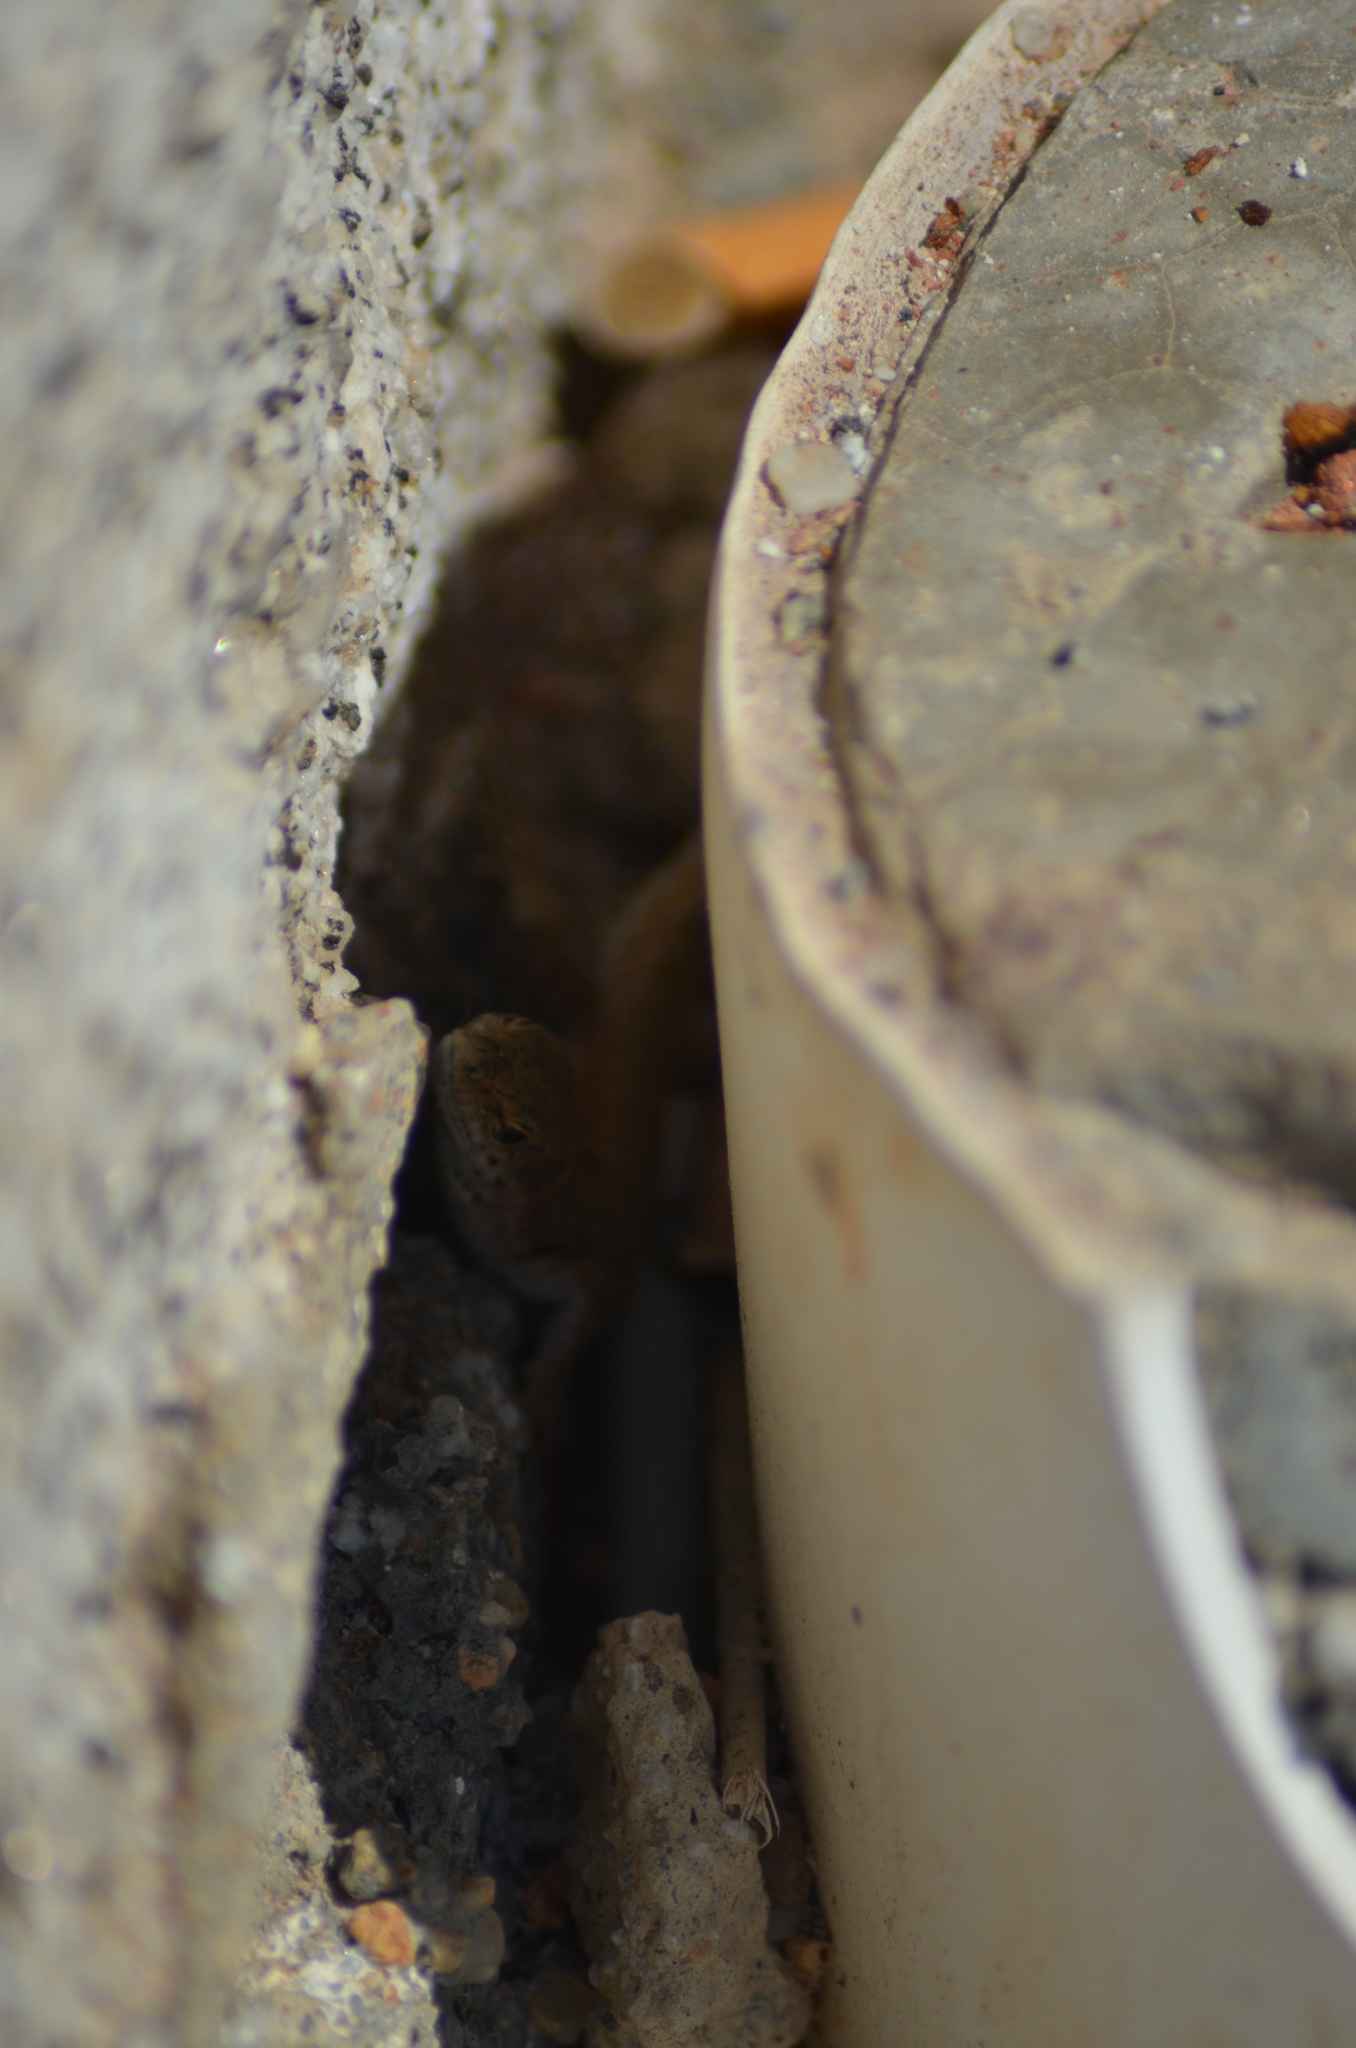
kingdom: Animalia
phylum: Chordata
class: Squamata
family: Lacertidae
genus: Podarcis
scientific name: Podarcis liolepis
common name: Catalonian wall lizard
